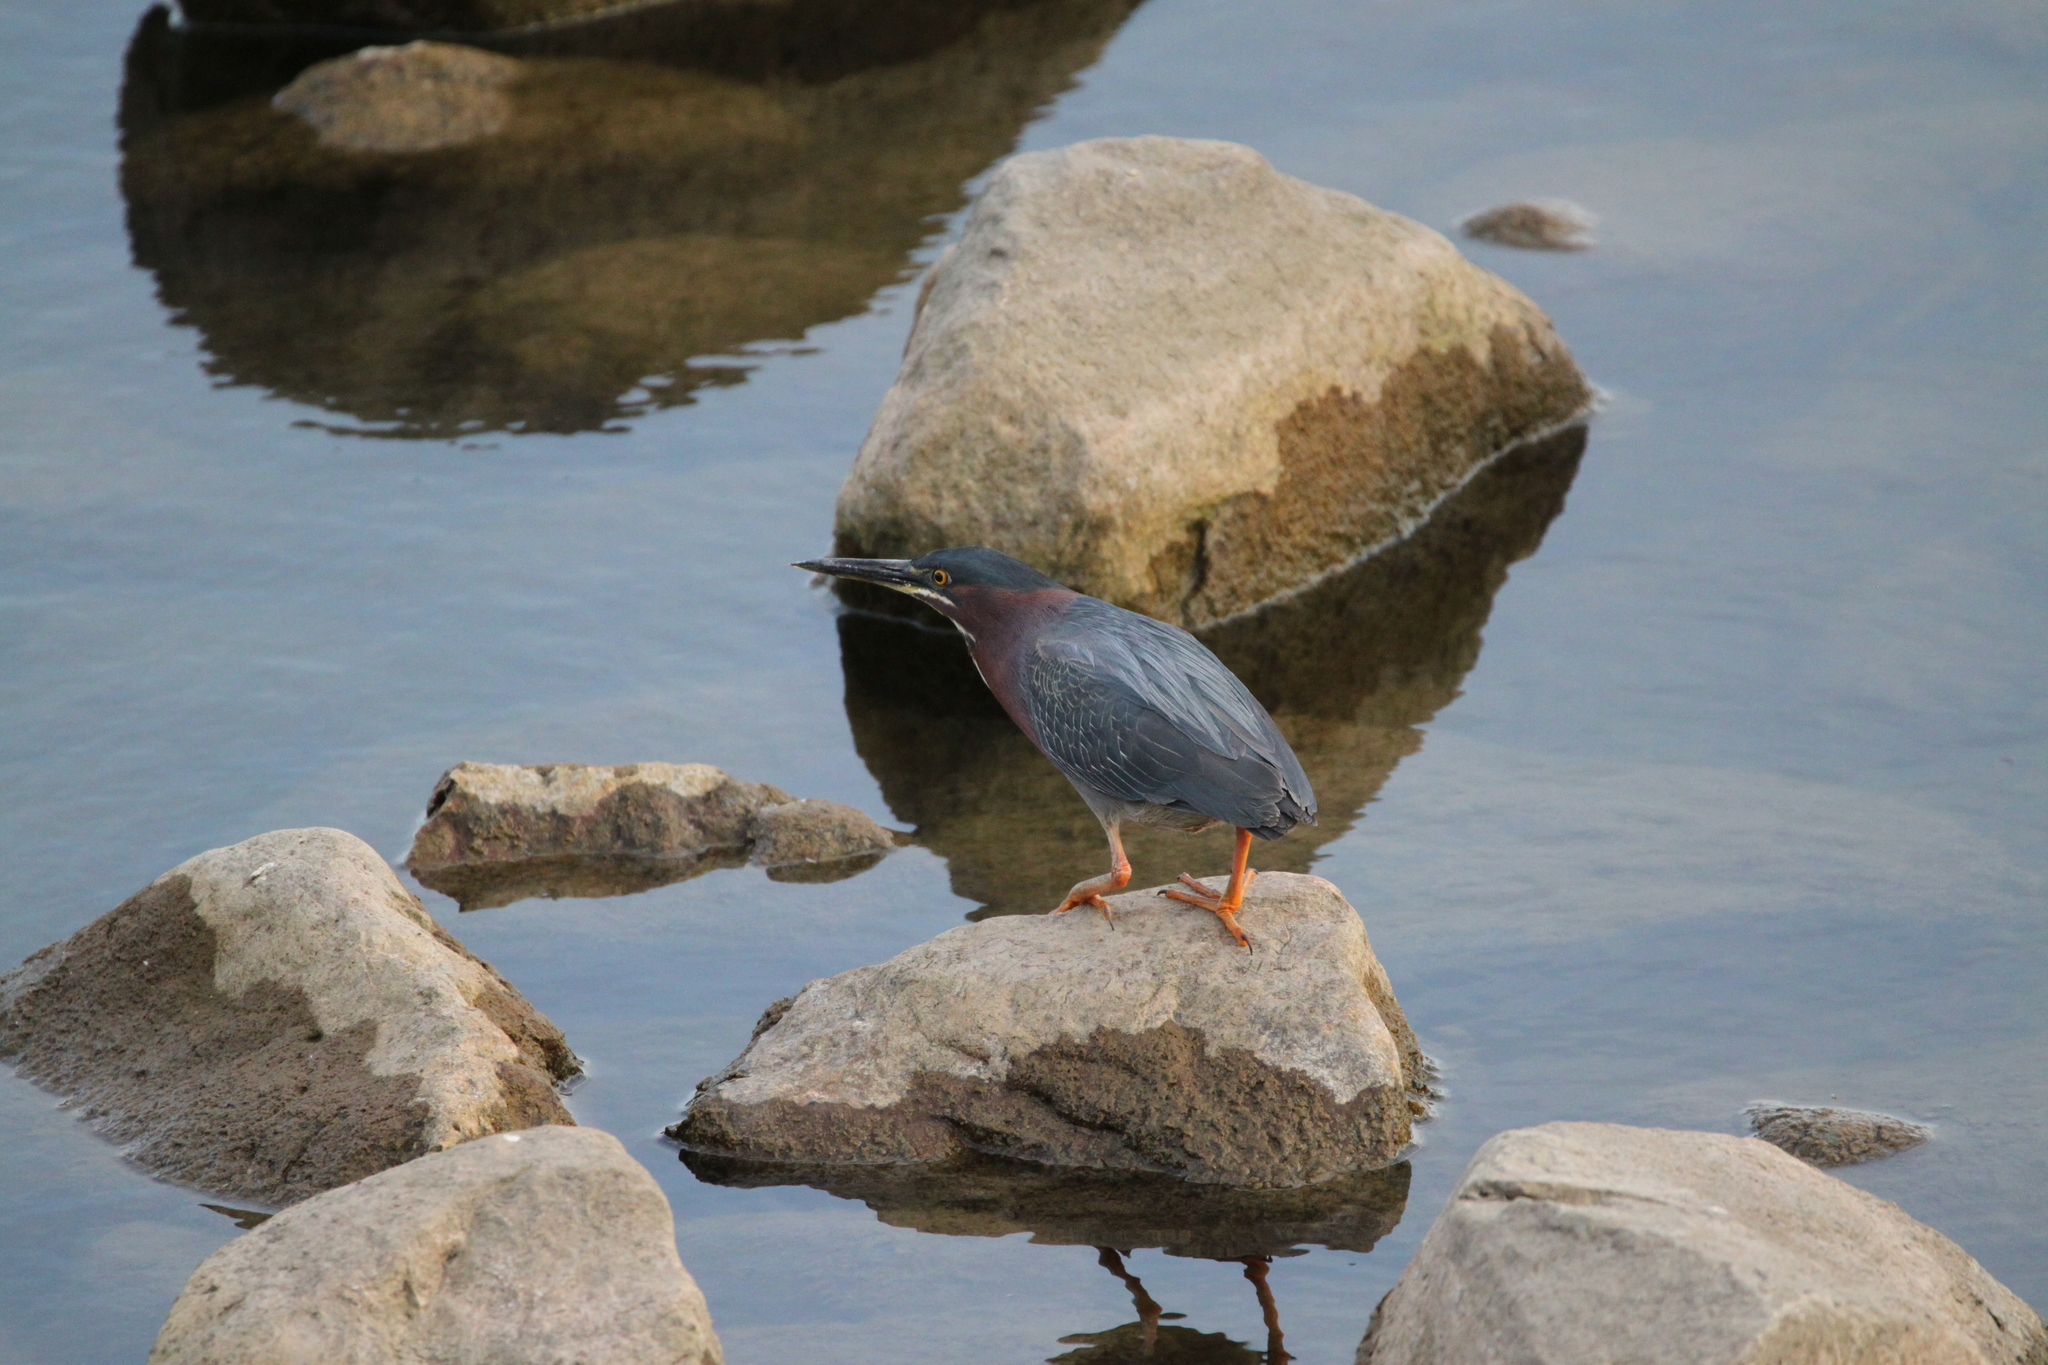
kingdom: Animalia
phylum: Chordata
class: Aves
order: Pelecaniformes
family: Ardeidae
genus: Butorides
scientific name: Butorides virescens
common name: Green heron
